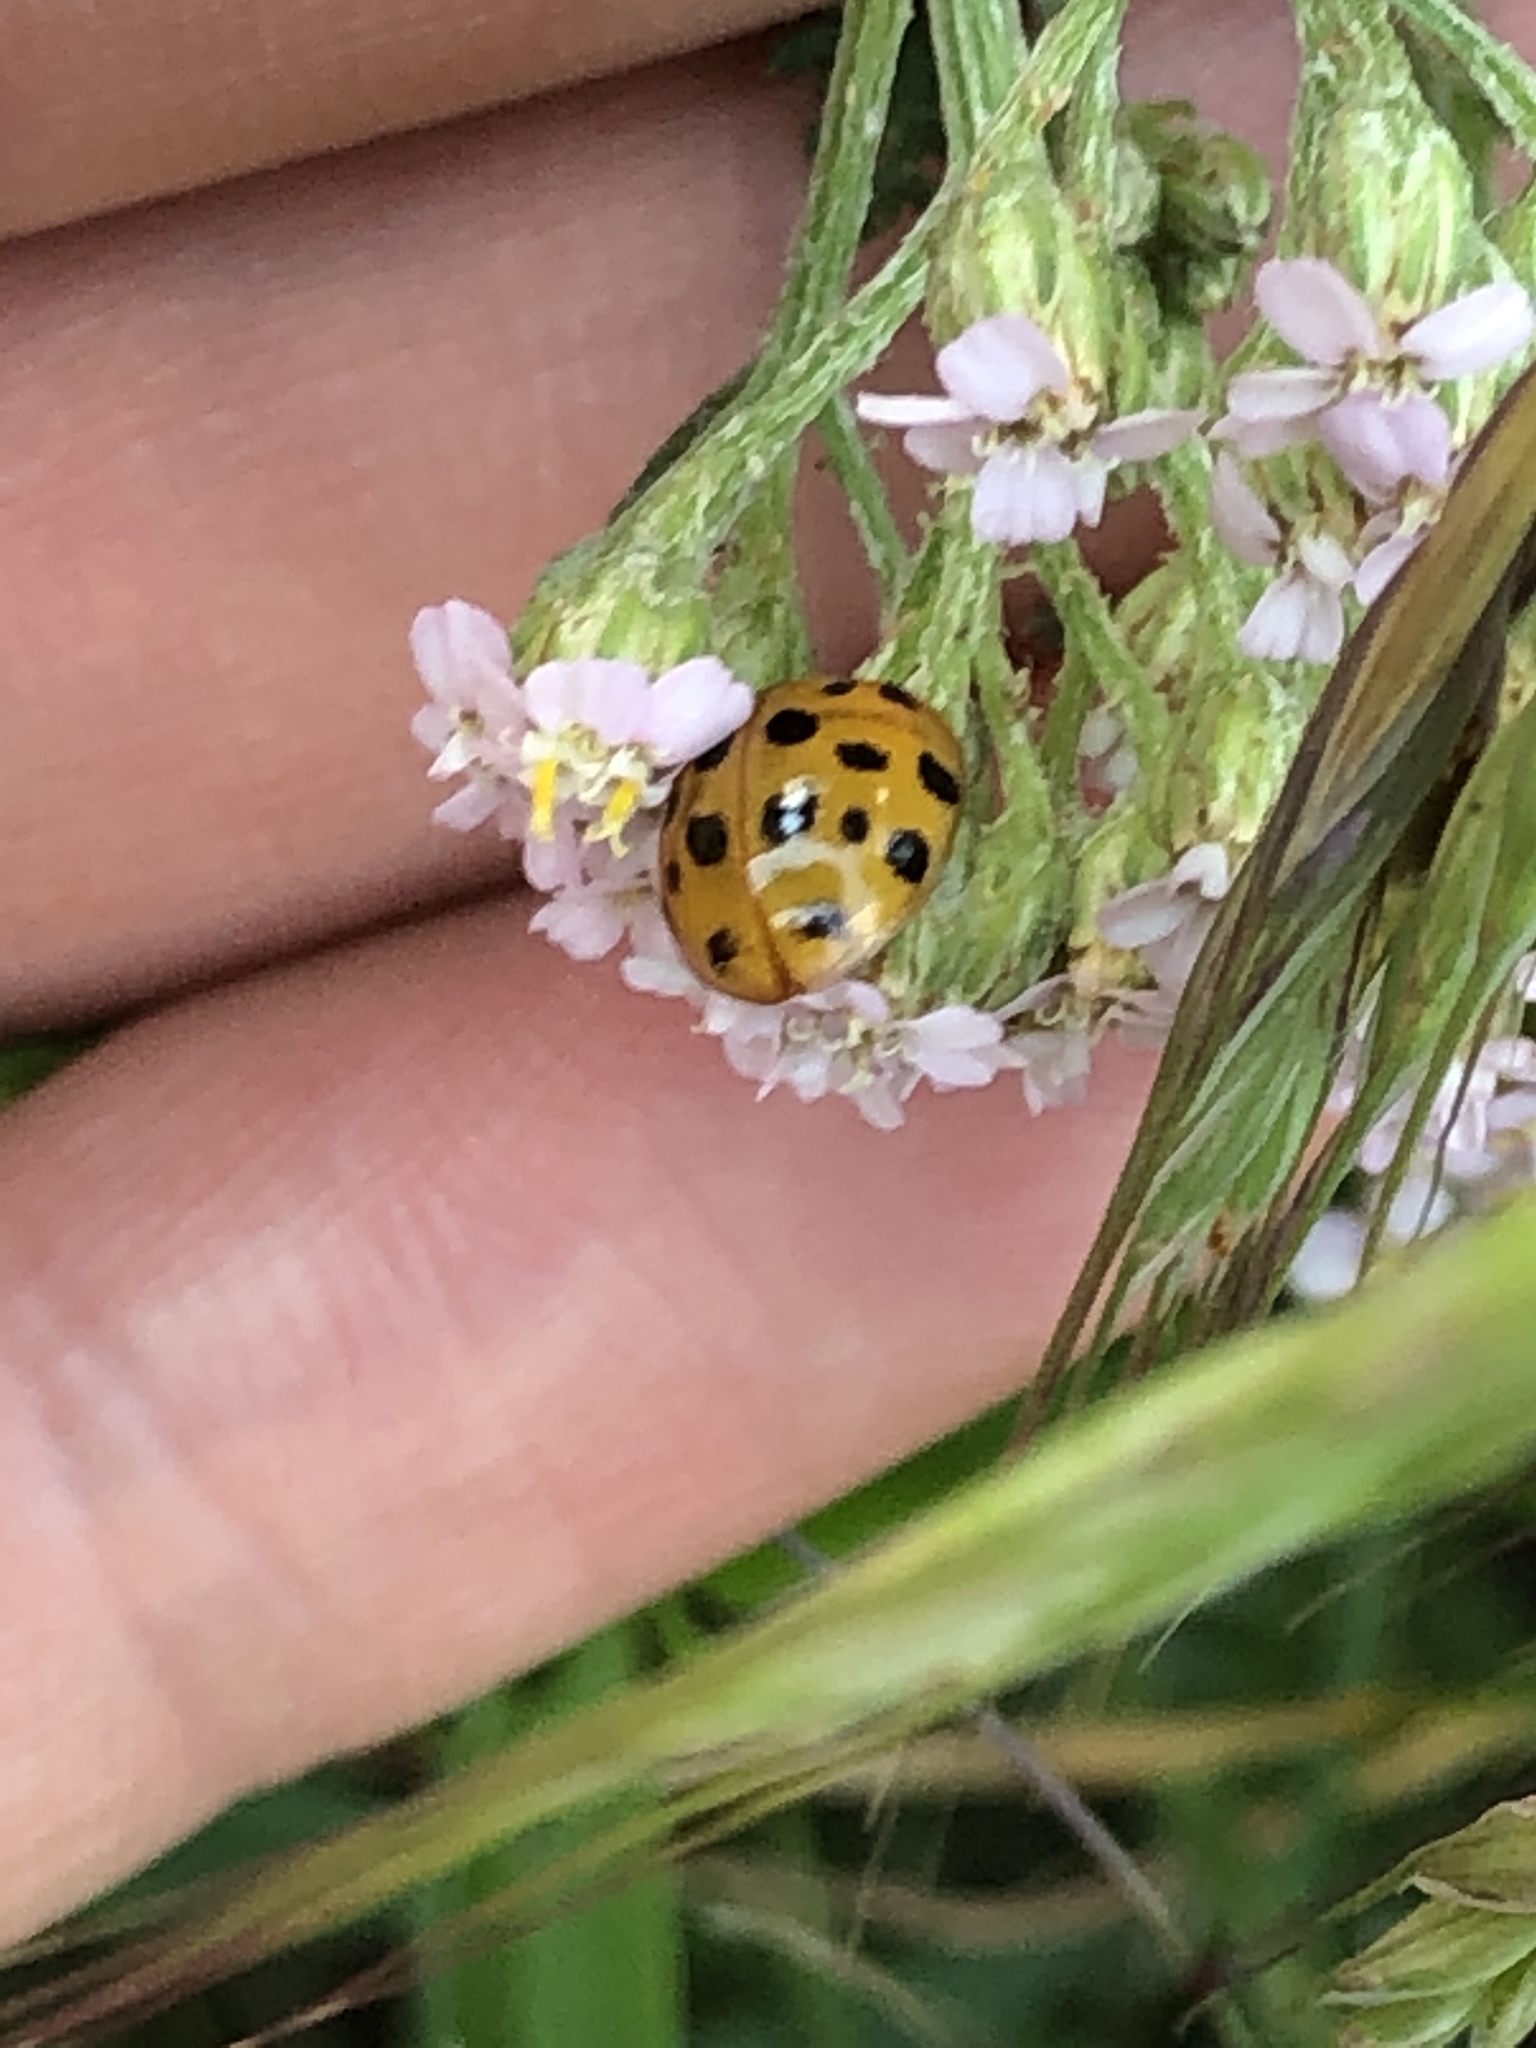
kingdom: Animalia
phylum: Arthropoda
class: Insecta
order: Coleoptera
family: Coccinellidae
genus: Harmonia
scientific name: Harmonia axyridis
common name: Harlequin ladybird
